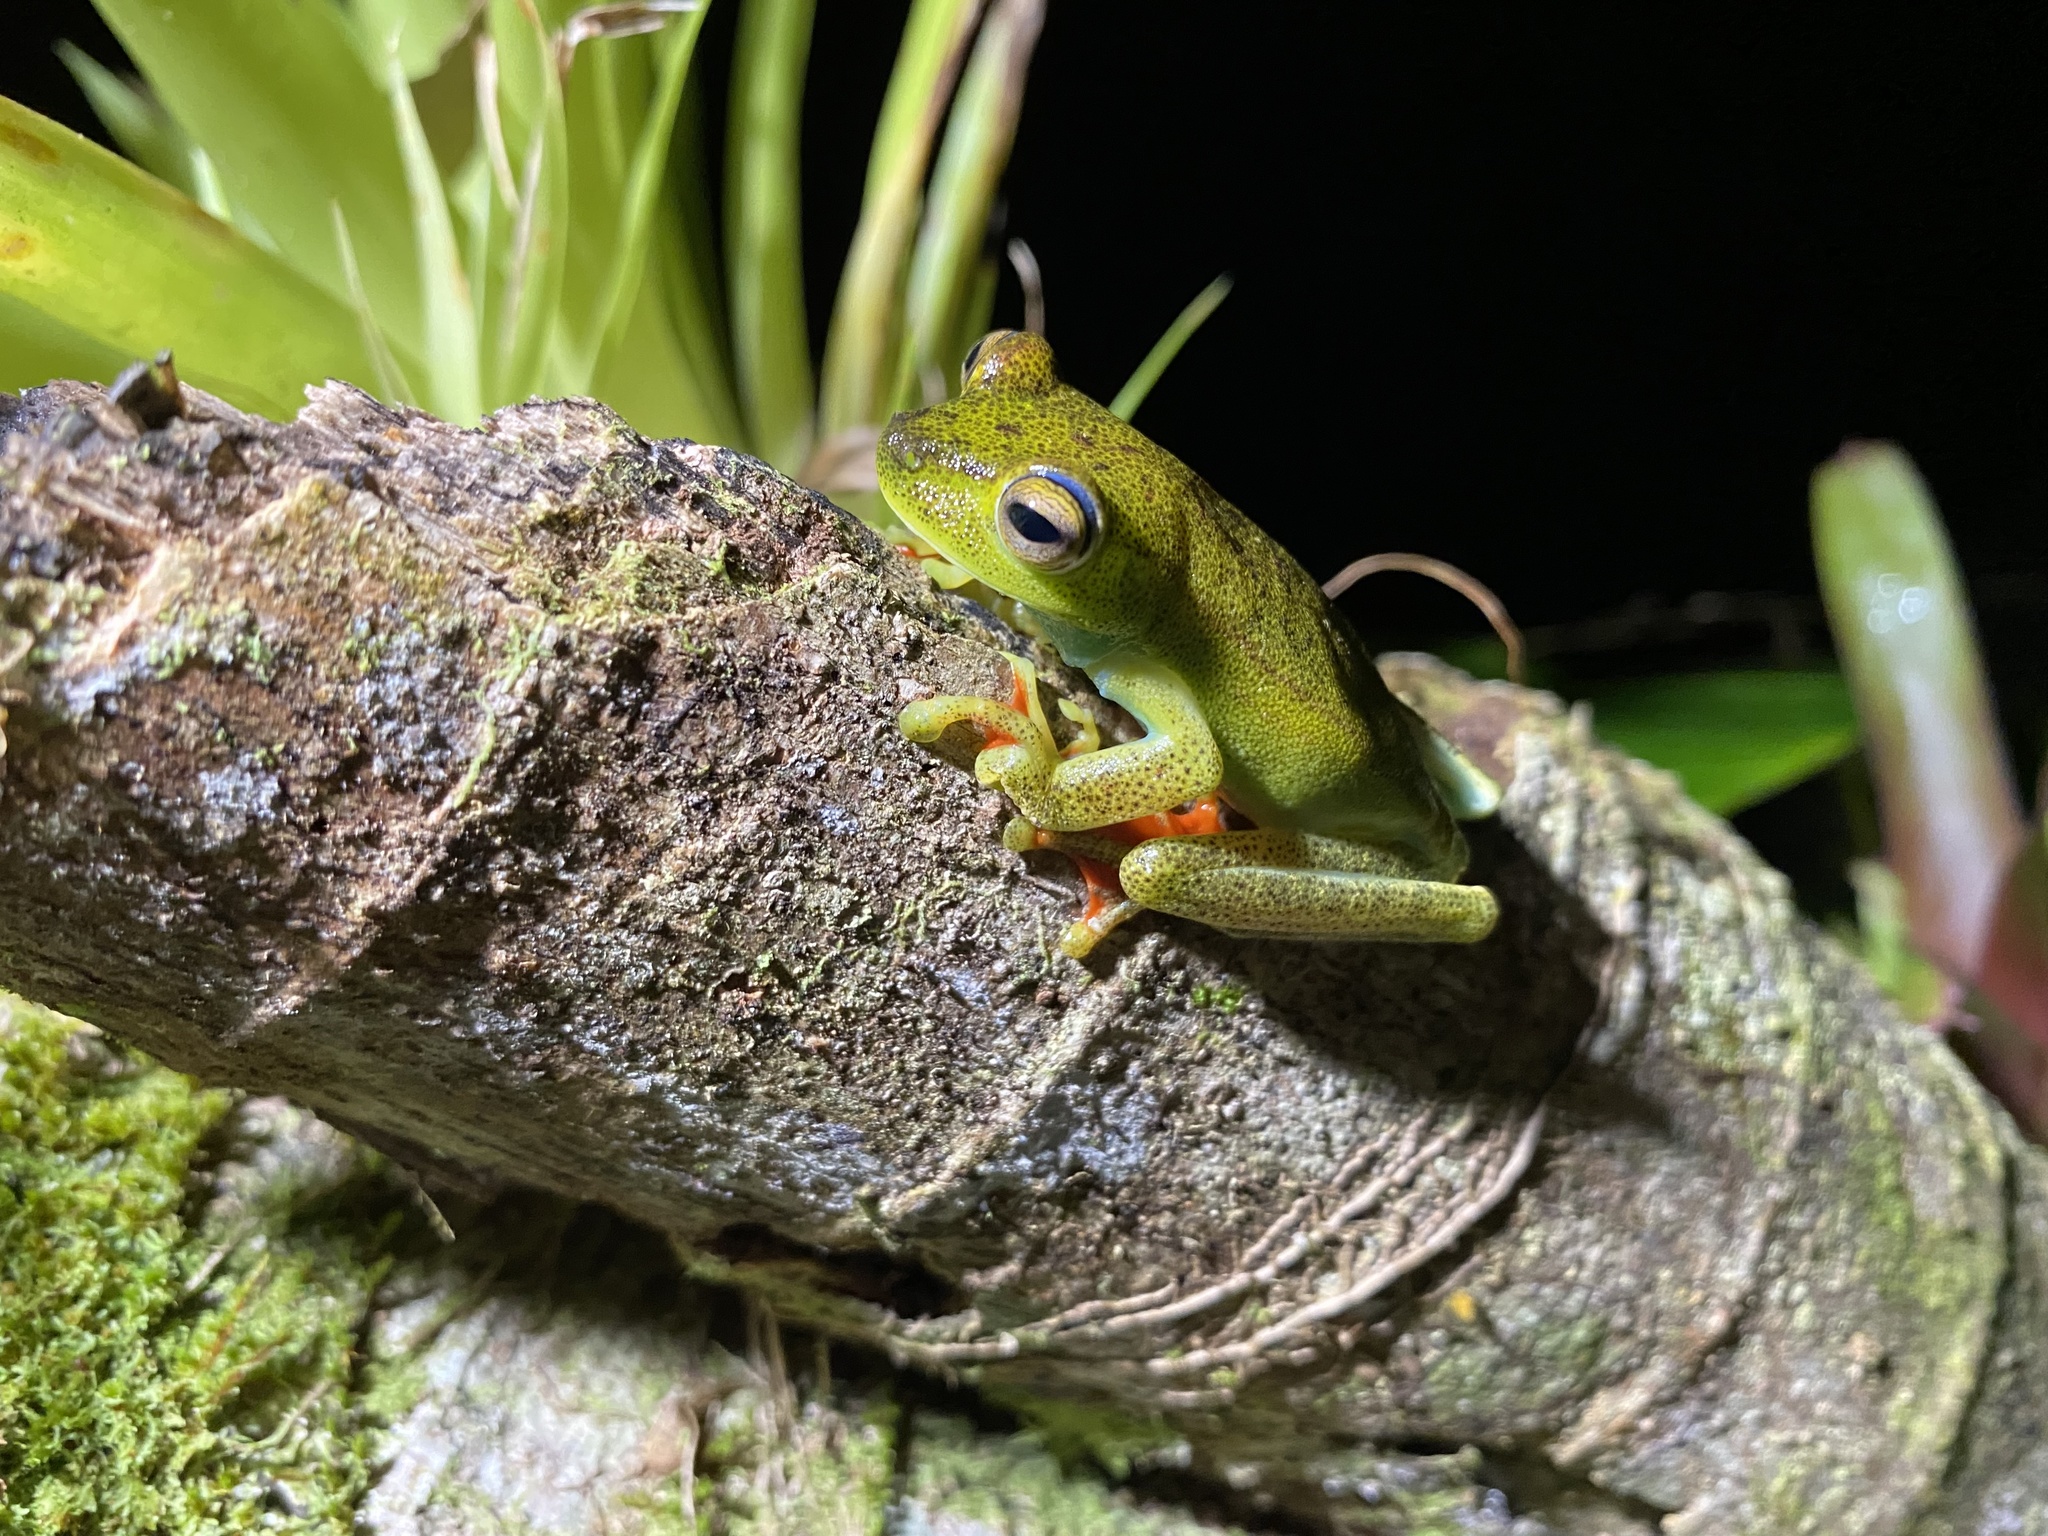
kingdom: Animalia
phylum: Chordata
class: Amphibia
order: Anura
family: Hylidae
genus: Boana
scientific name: Boana rufitela
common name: Canal zone treefrog
